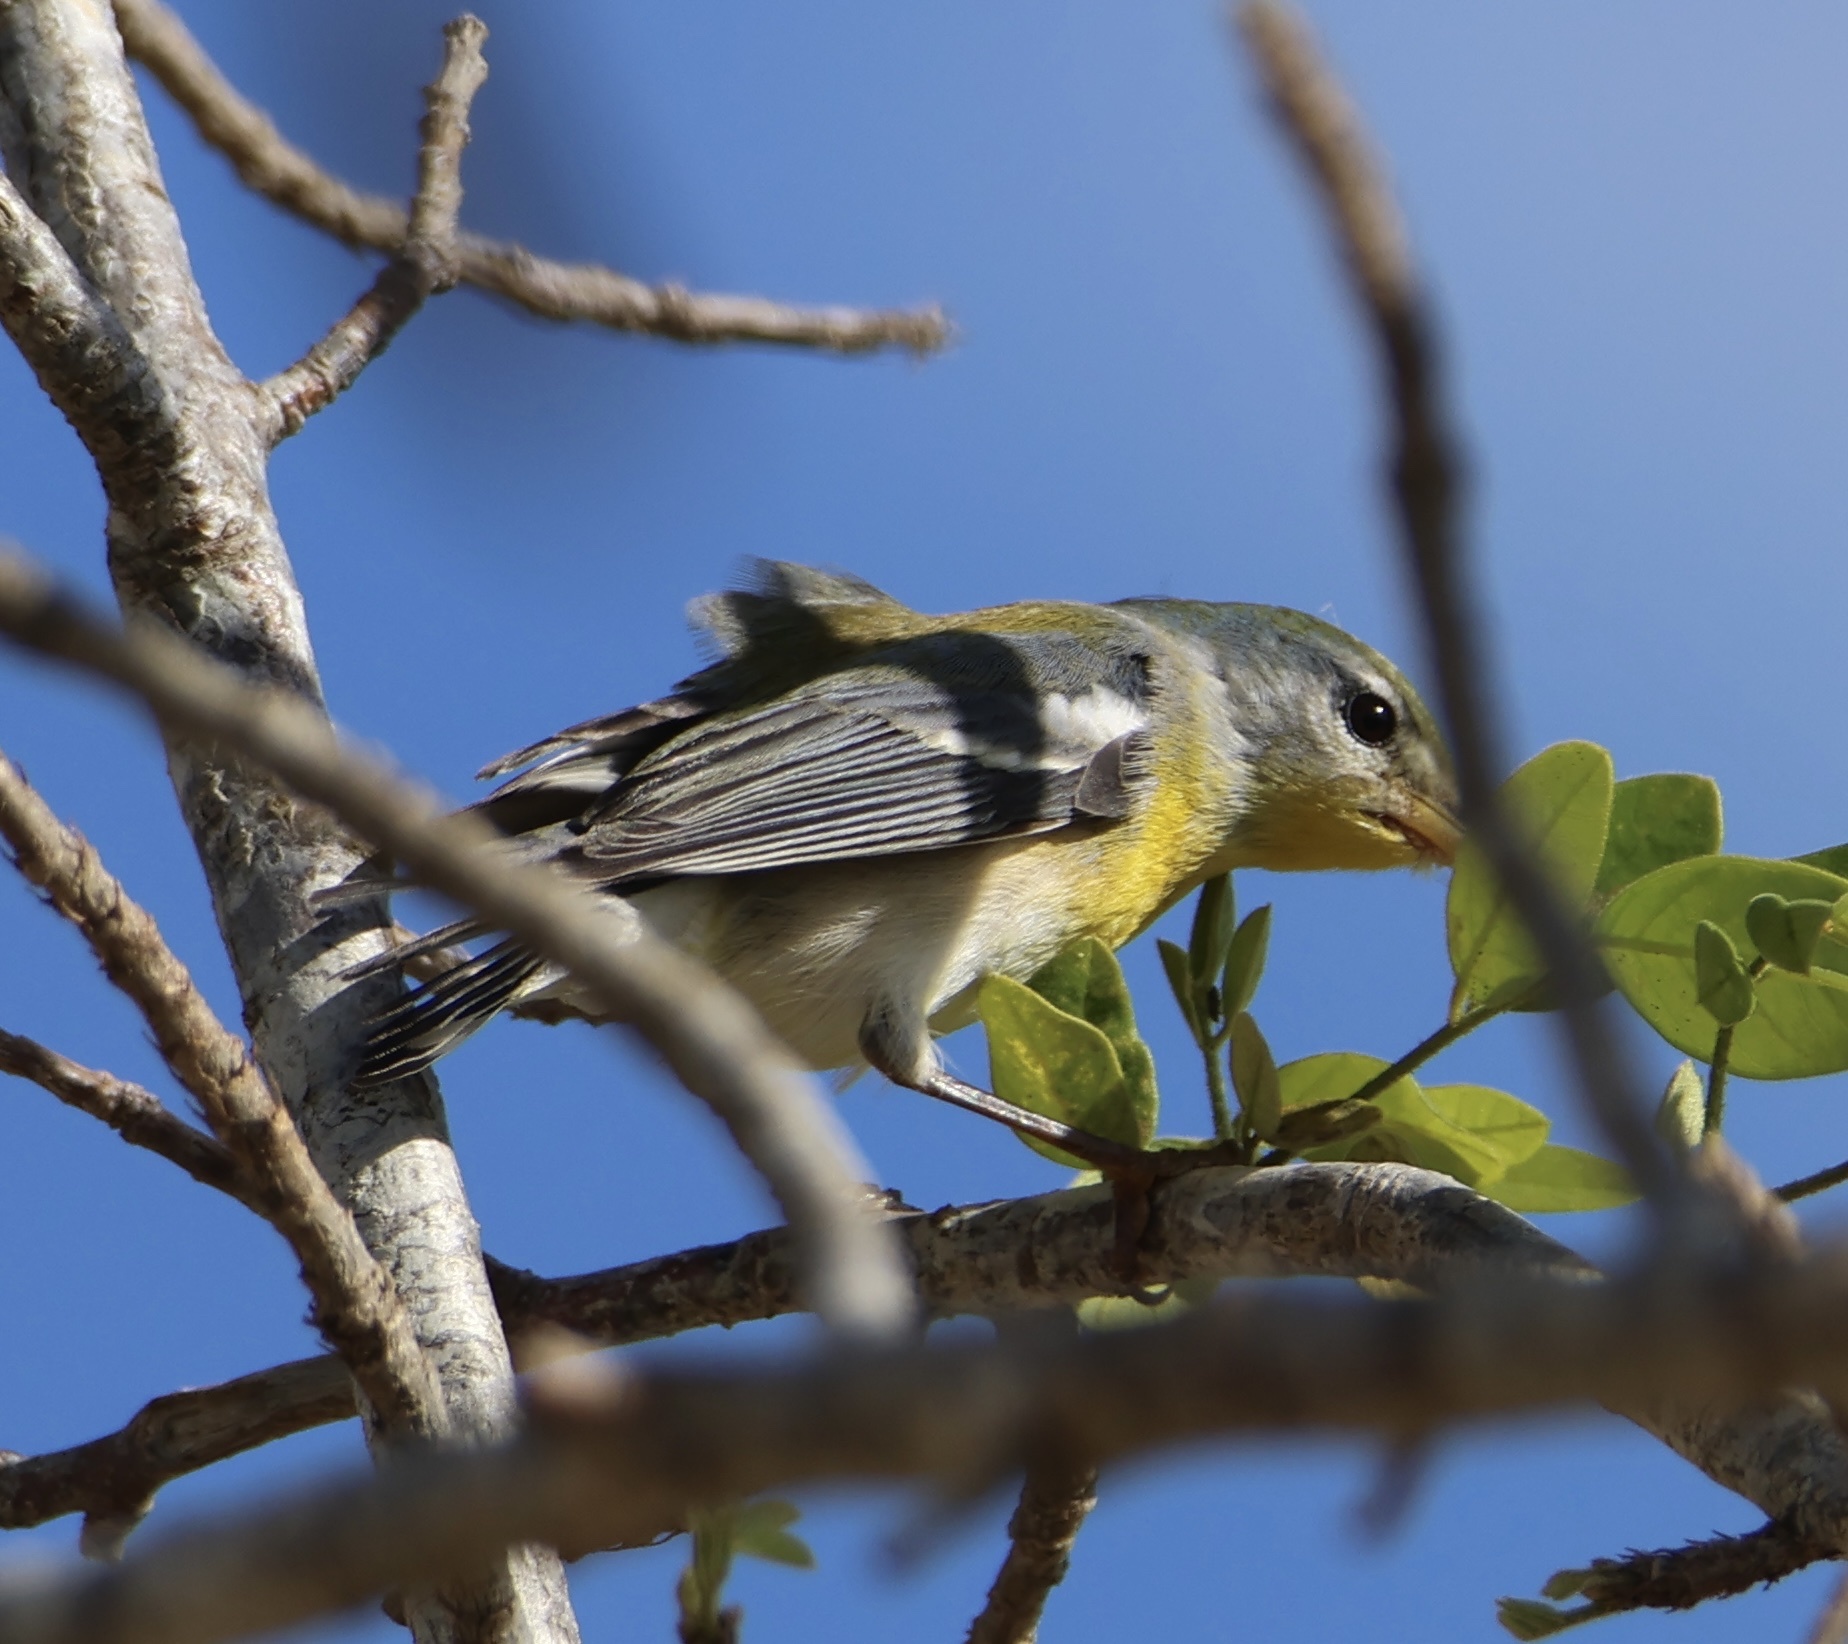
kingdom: Animalia
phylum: Chordata
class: Aves
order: Passeriformes
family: Parulidae
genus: Setophaga
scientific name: Setophaga americana
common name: Northern parula
